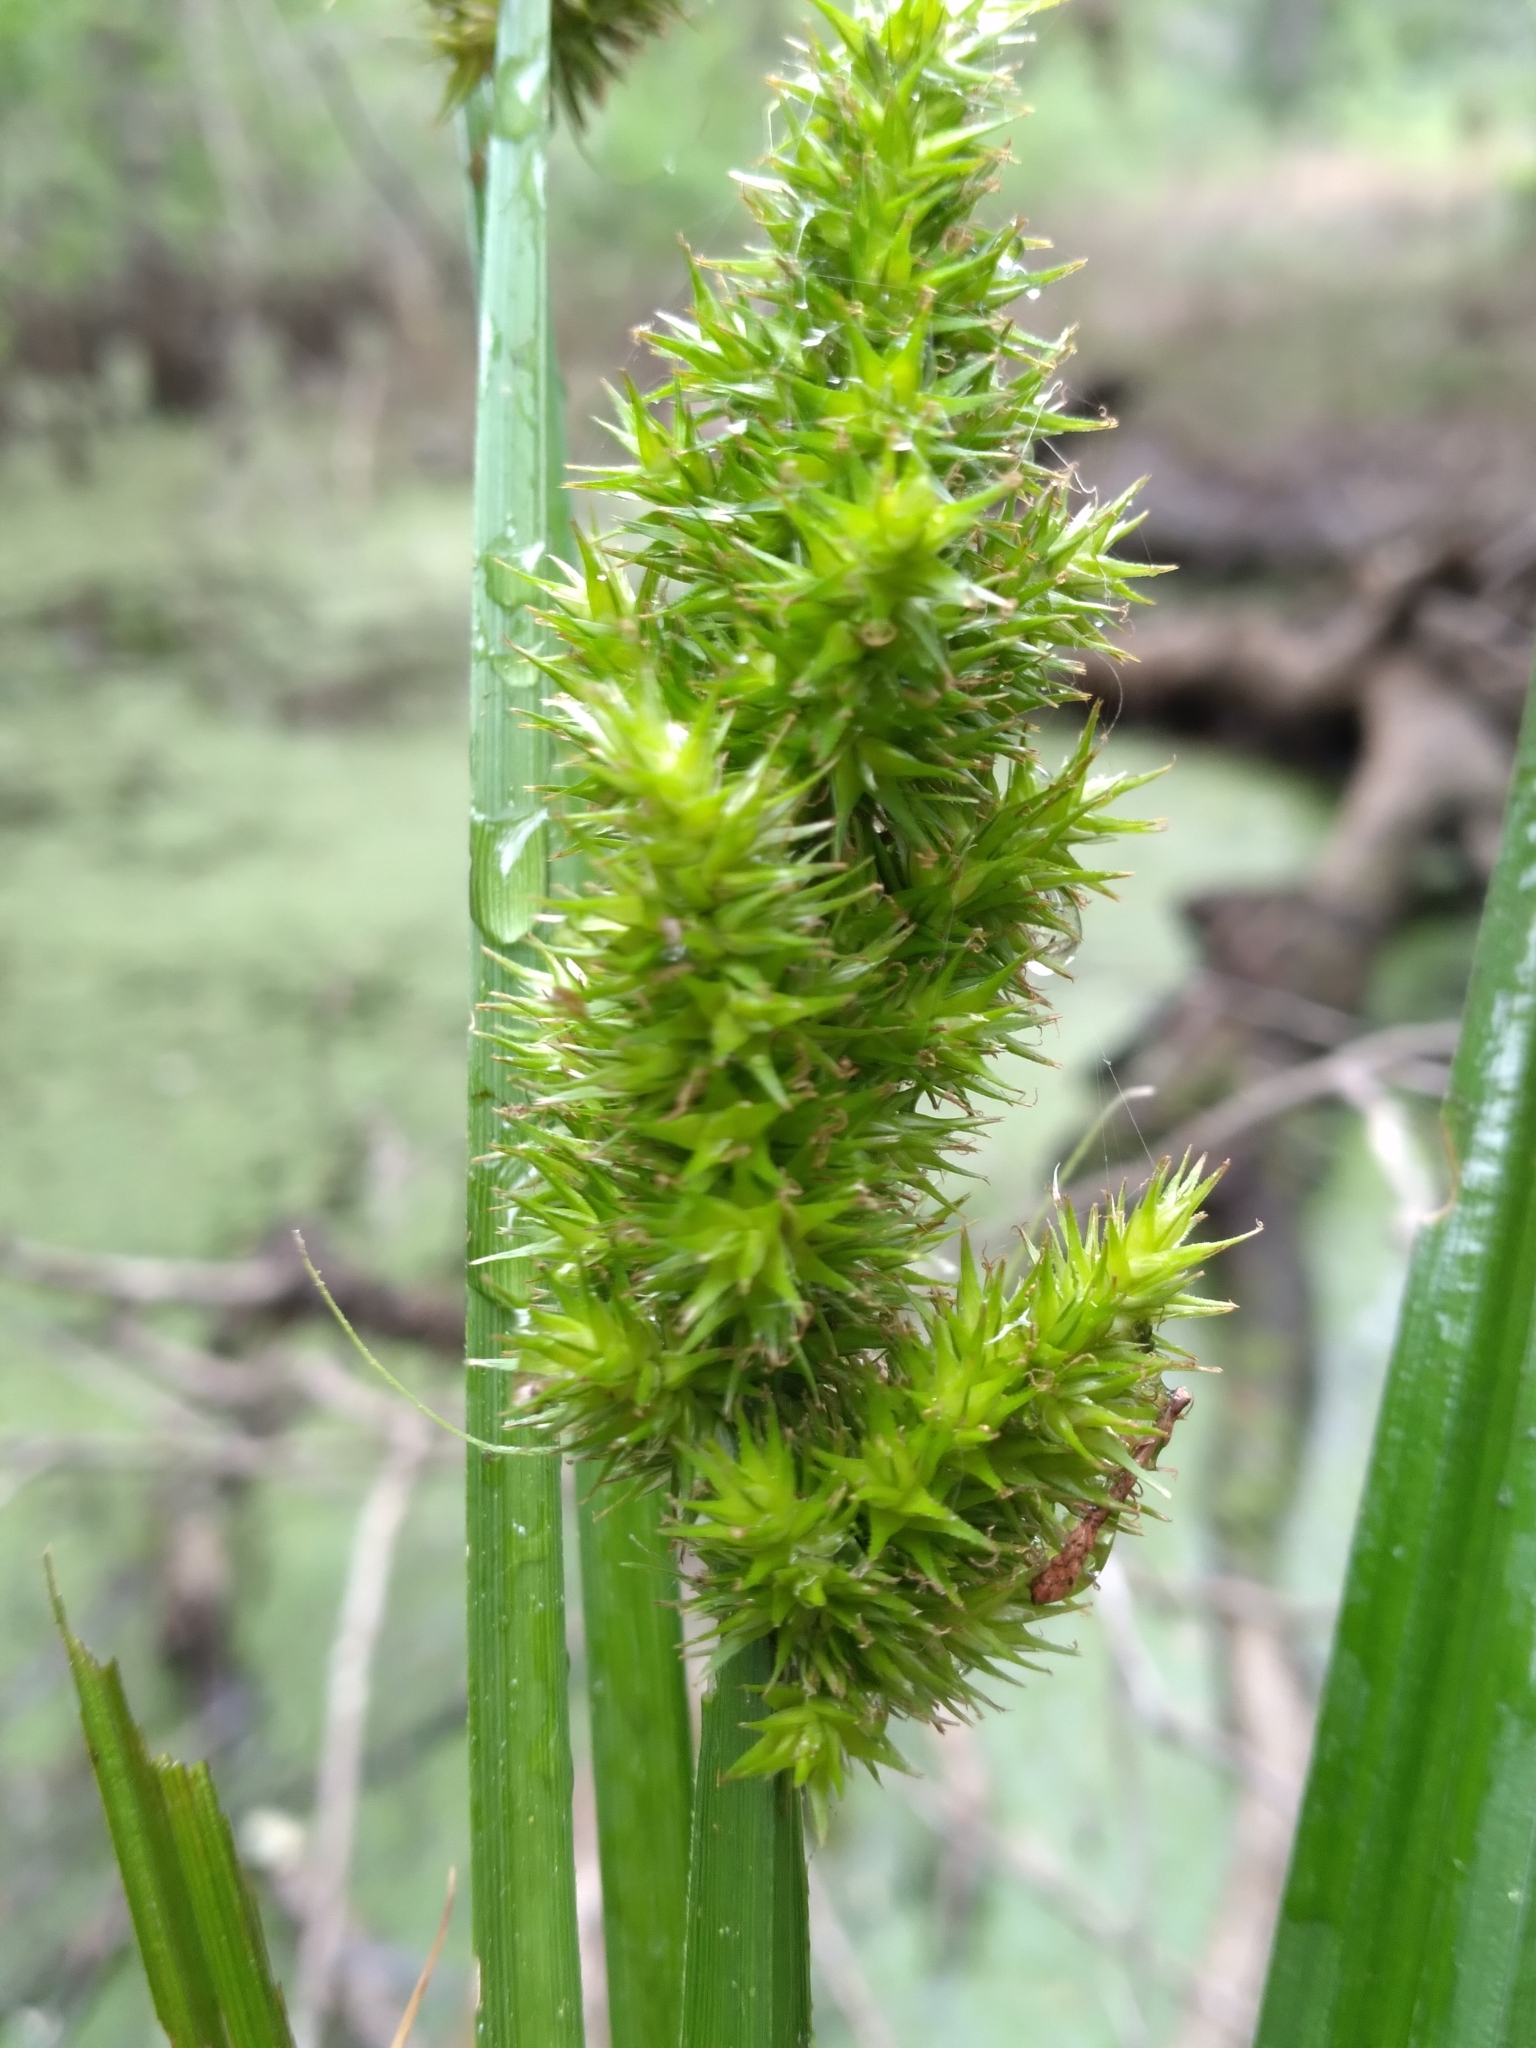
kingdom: Plantae
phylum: Tracheophyta
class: Liliopsida
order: Poales
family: Cyperaceae
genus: Carex
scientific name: Carex stipata
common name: Awl-fruited sedge
